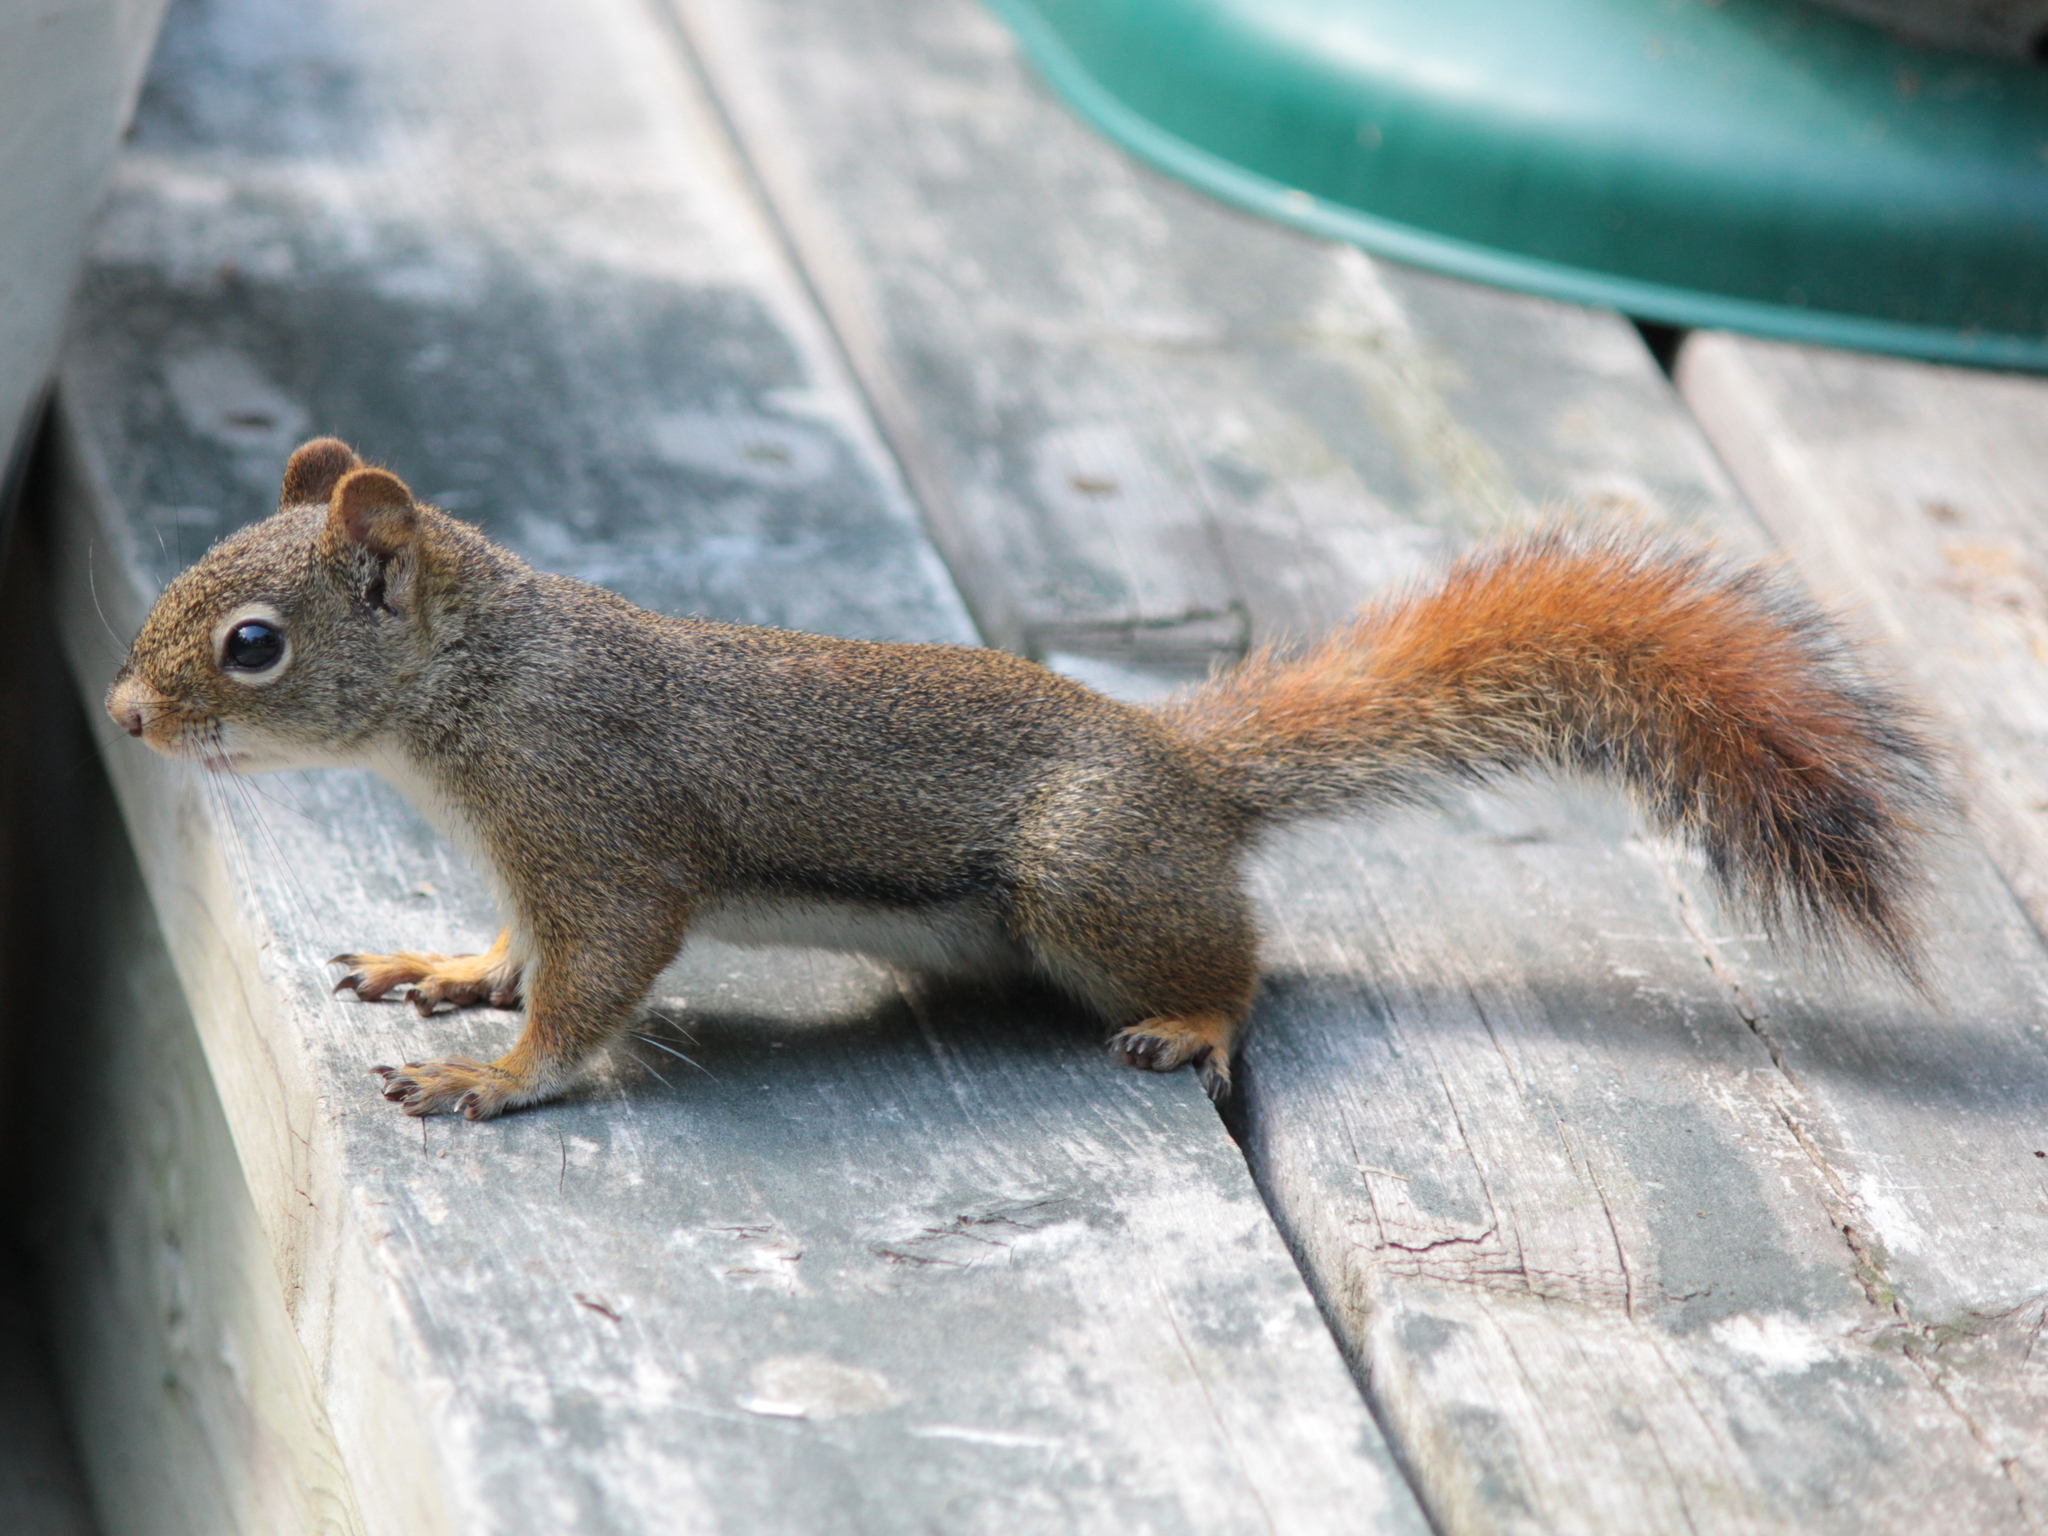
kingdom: Animalia
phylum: Chordata
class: Mammalia
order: Rodentia
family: Sciuridae
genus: Tamiasciurus
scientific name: Tamiasciurus hudsonicus
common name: Red squirrel
